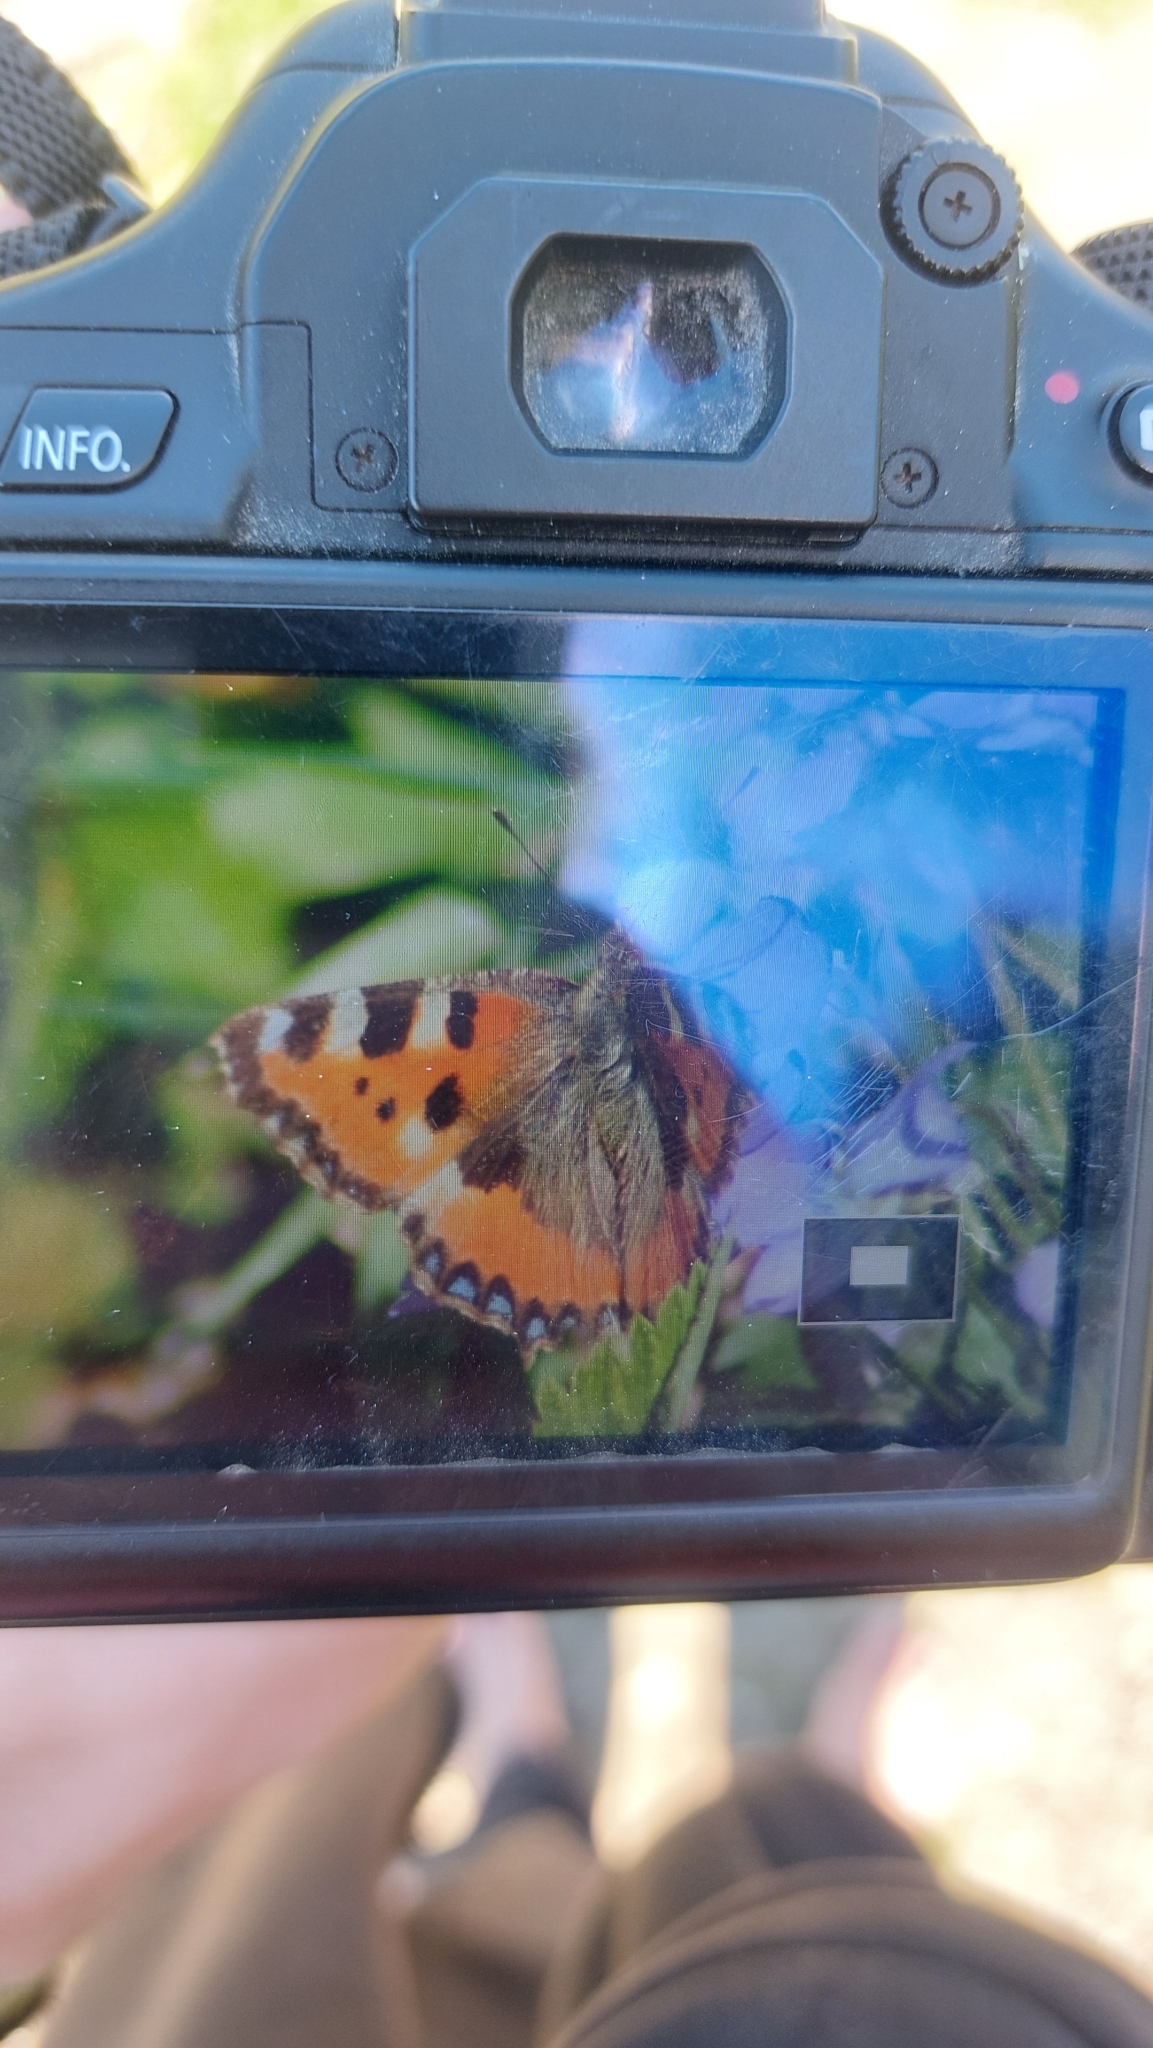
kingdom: Animalia
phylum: Arthropoda
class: Insecta
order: Lepidoptera
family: Nymphalidae
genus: Aglais
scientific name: Aglais urticae
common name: Small tortoiseshell
